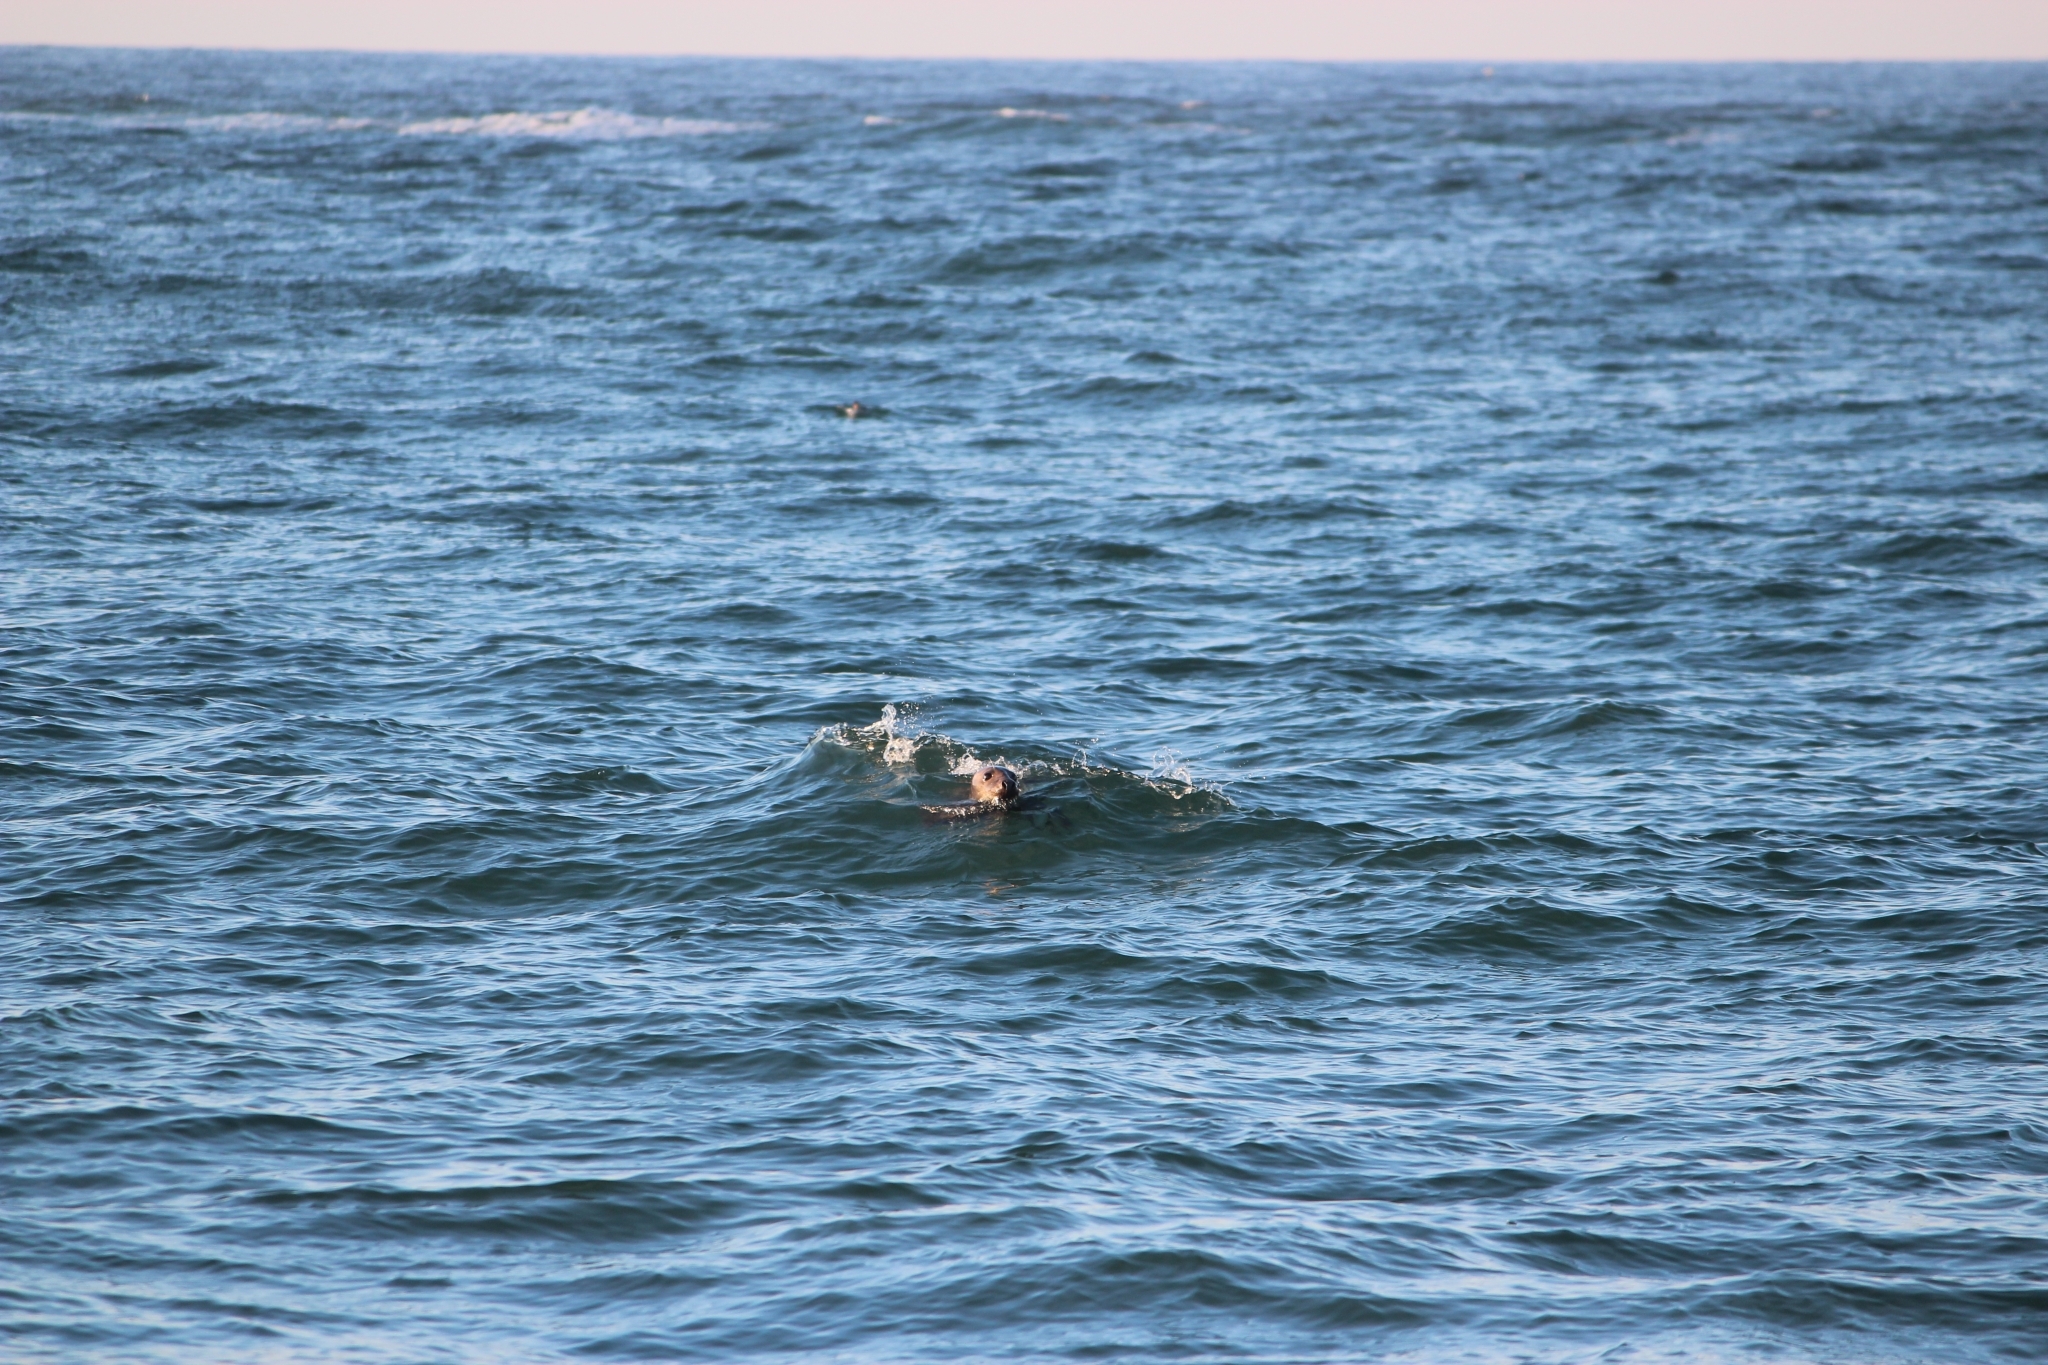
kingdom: Animalia
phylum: Chordata
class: Mammalia
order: Carnivora
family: Phocidae
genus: Halichoerus
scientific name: Halichoerus grypus
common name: Grey seal
